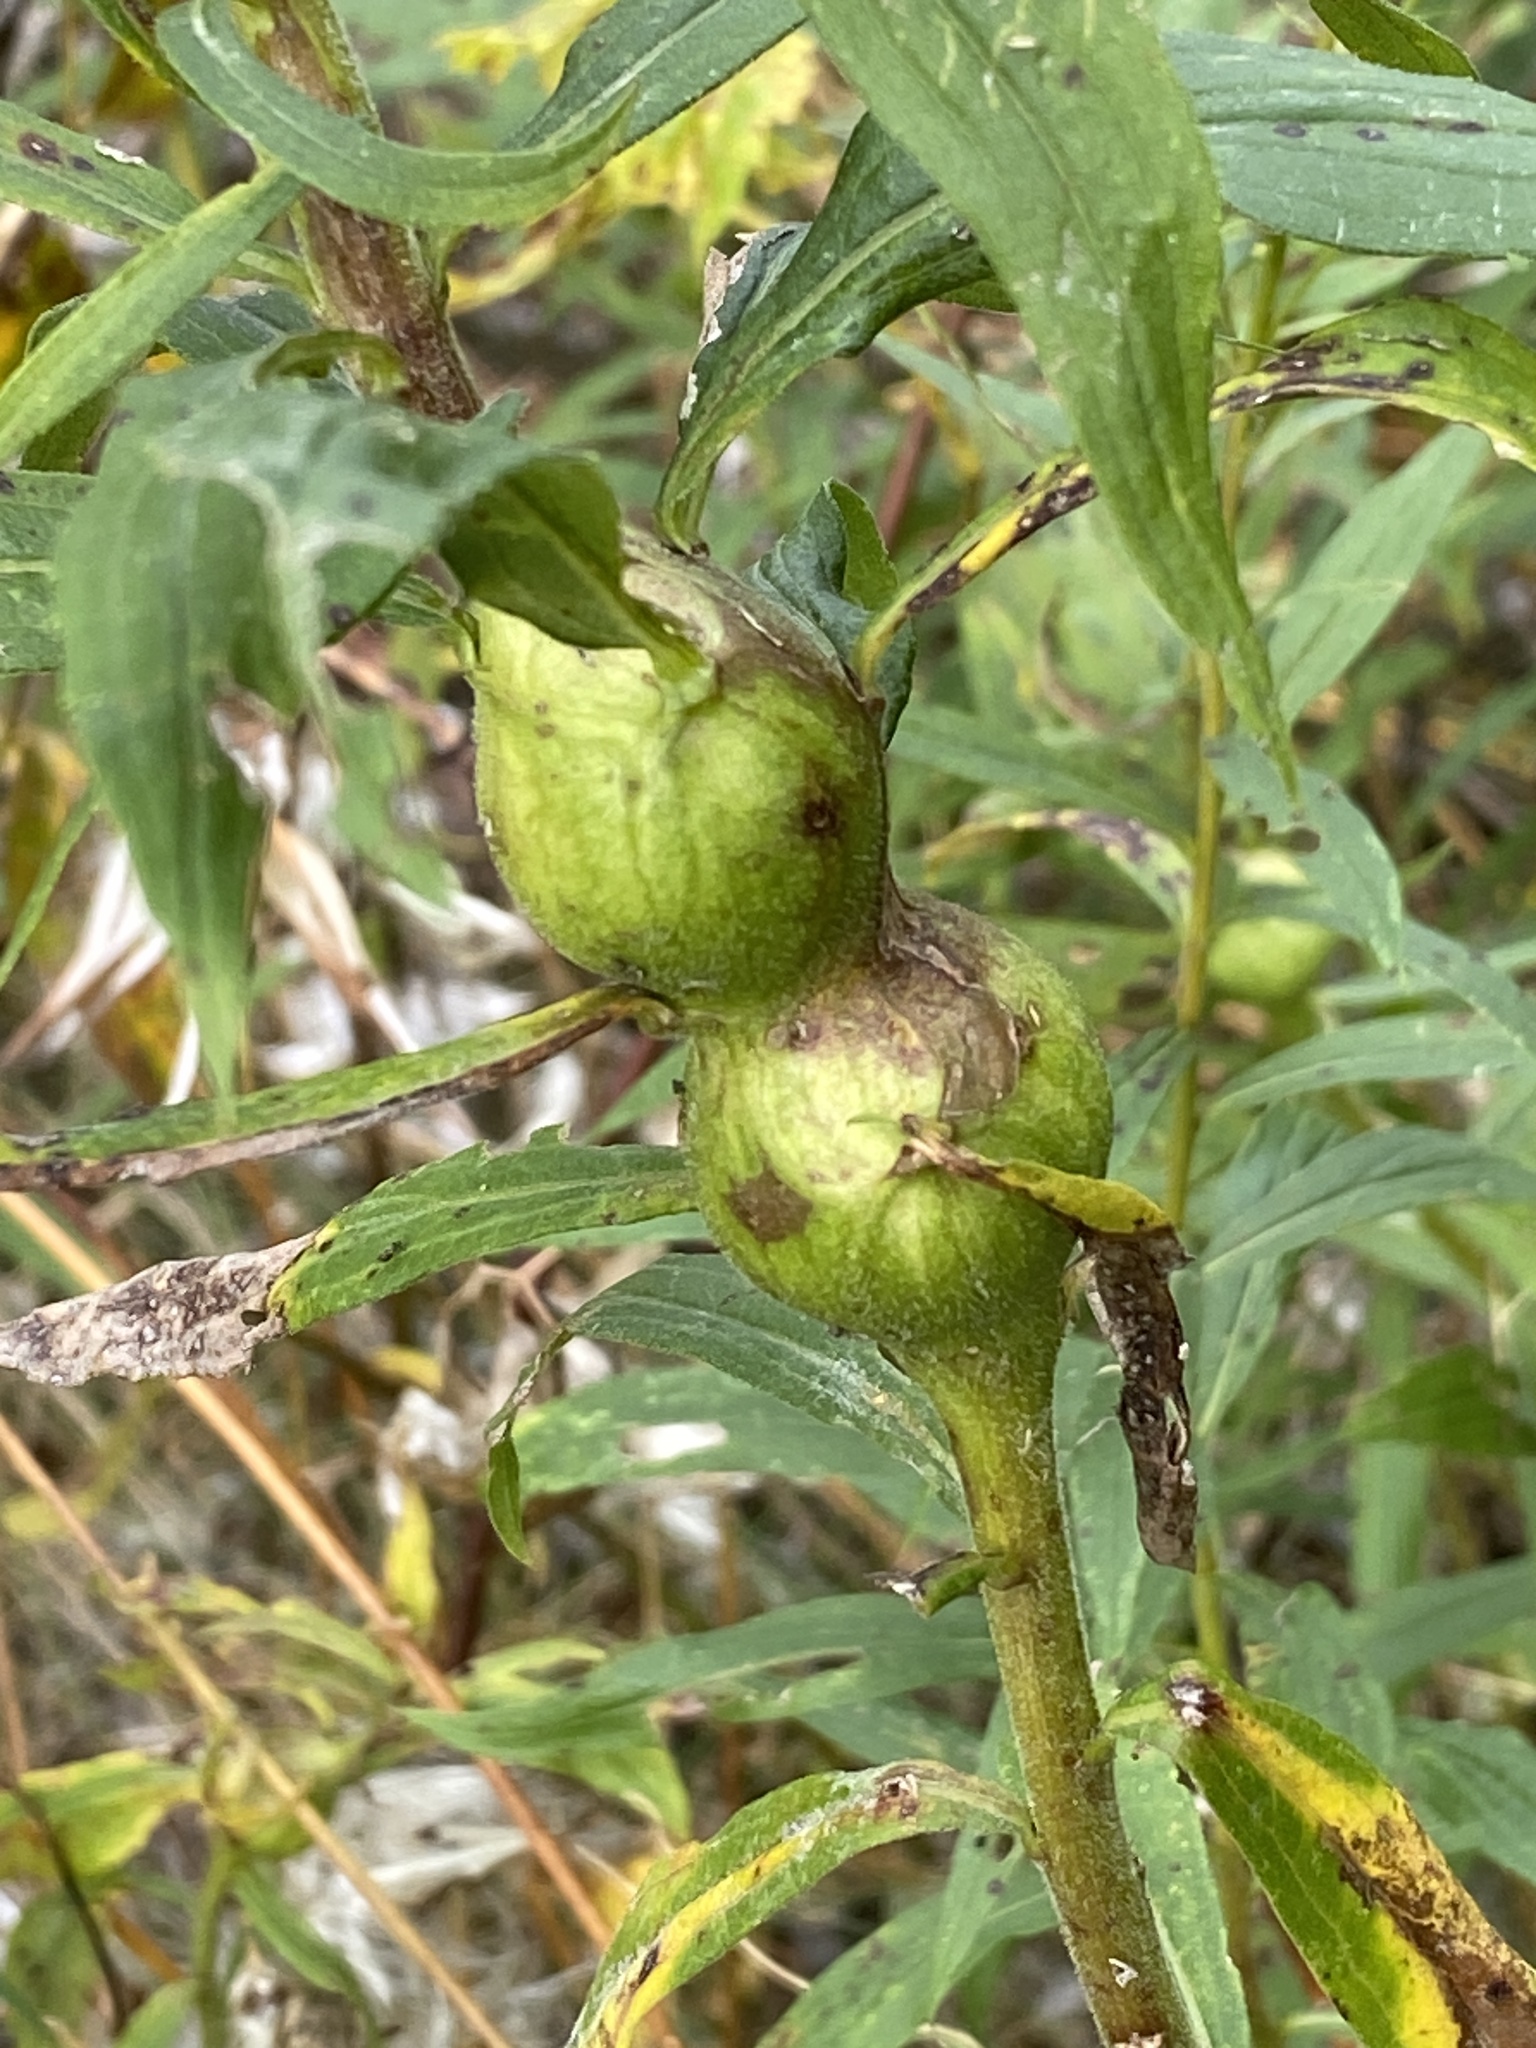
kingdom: Animalia
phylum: Arthropoda
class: Insecta
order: Diptera
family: Tephritidae
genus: Eurosta
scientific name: Eurosta solidaginis
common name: Goldenrod gall fly
